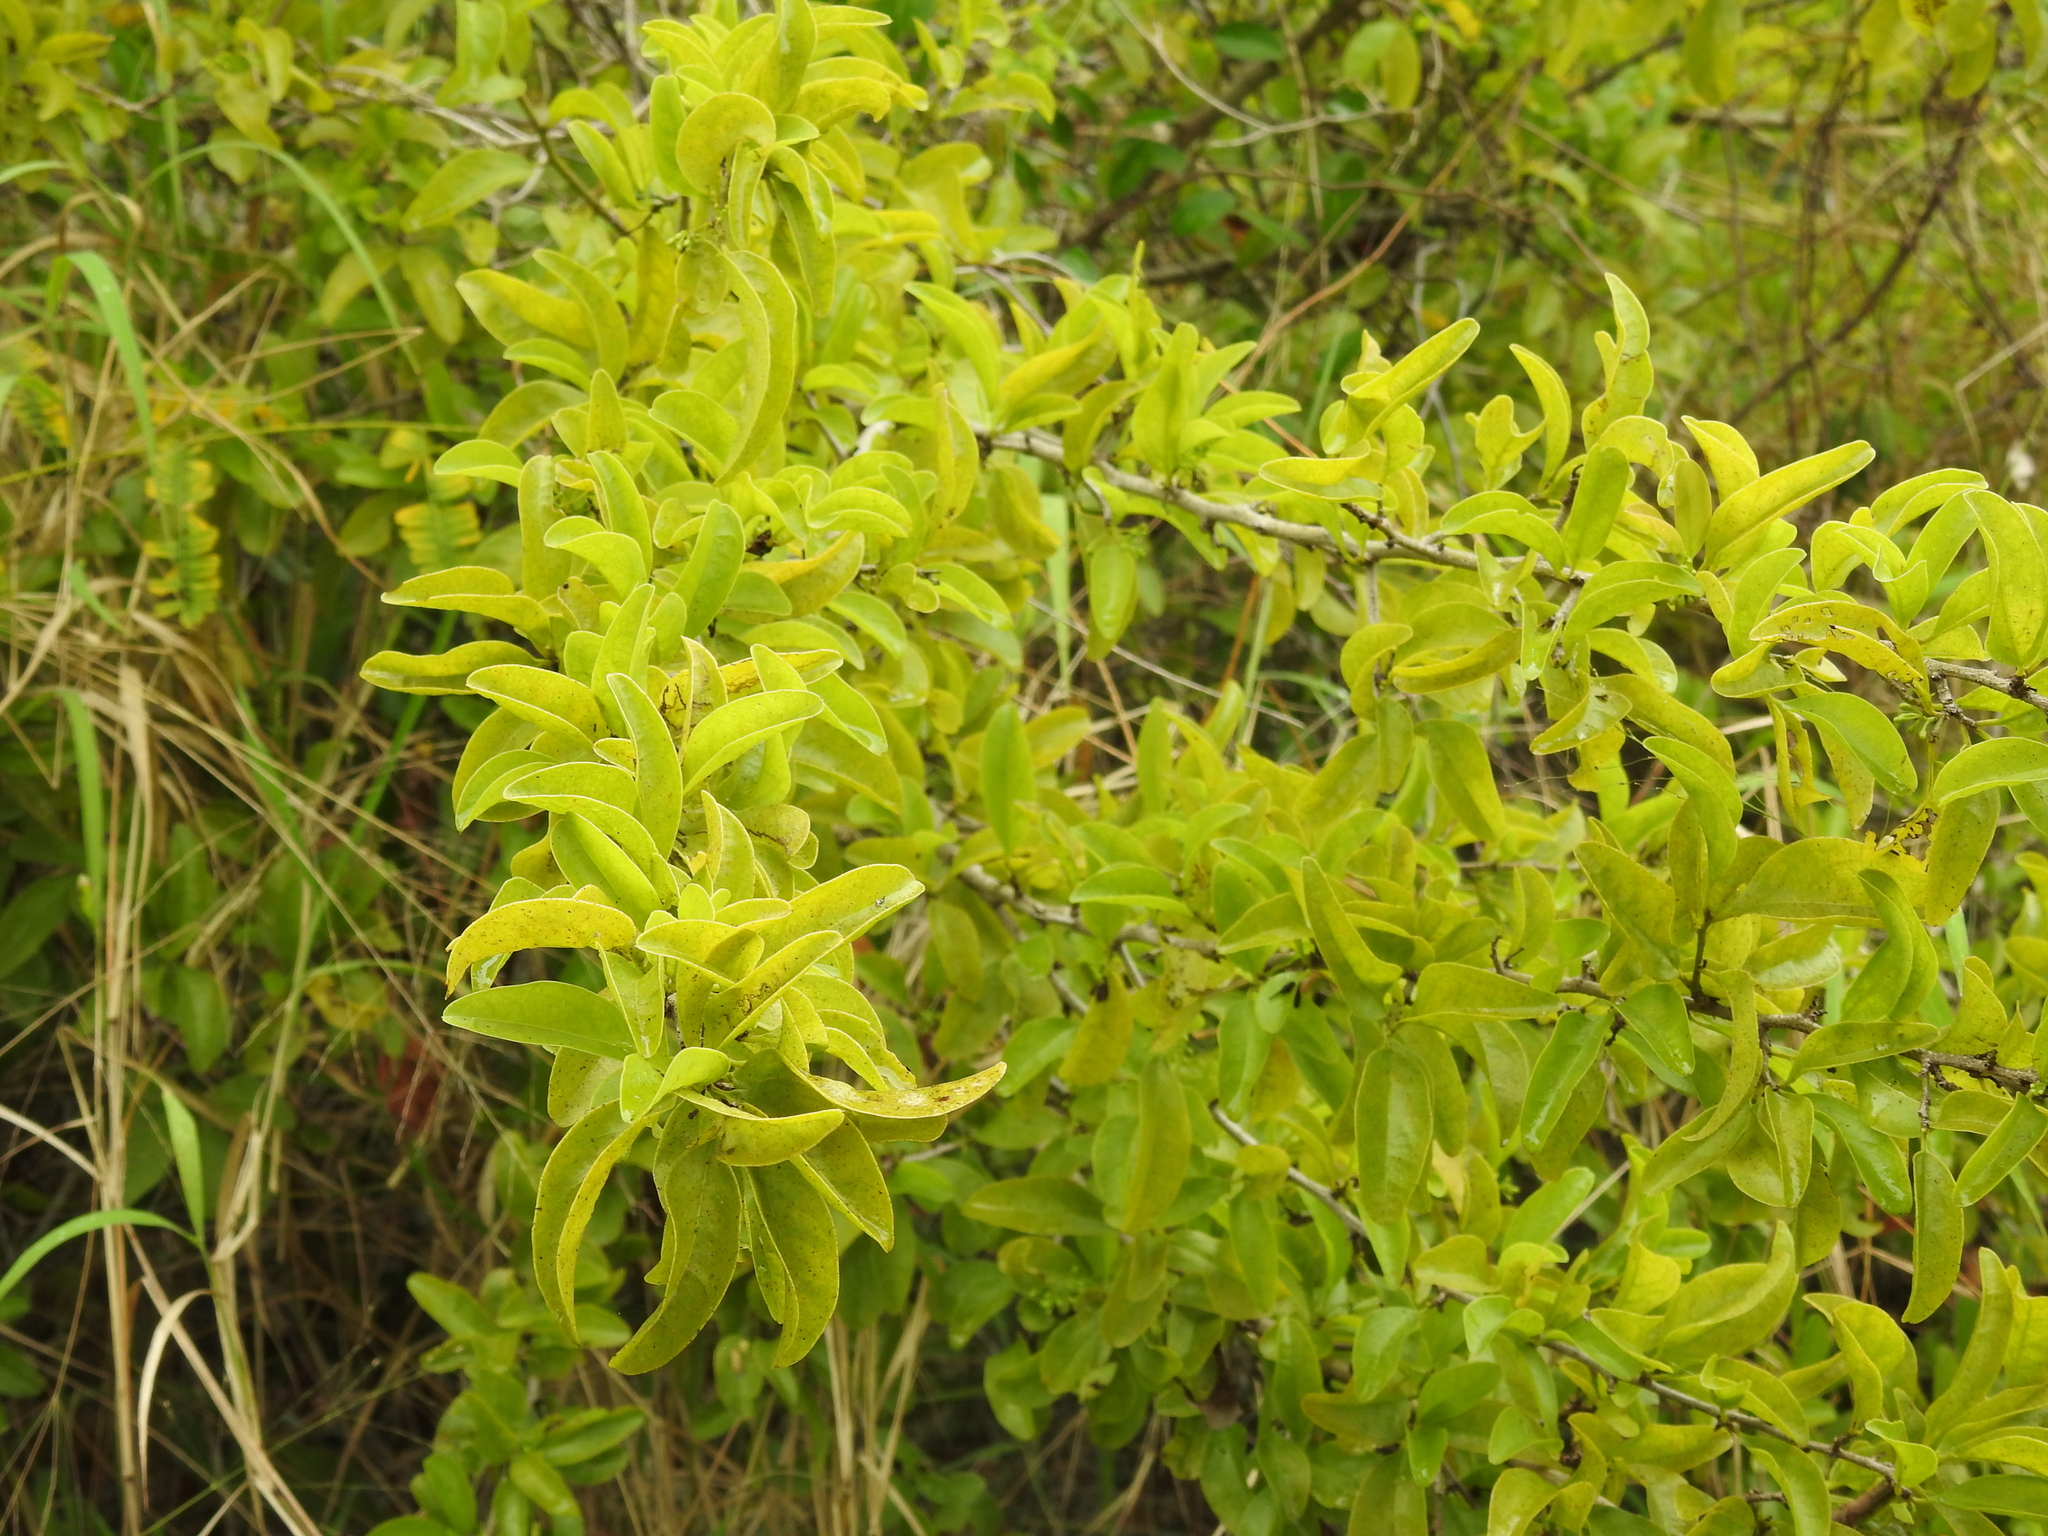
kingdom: Plantae
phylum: Tracheophyta
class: Magnoliopsida
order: Santalales
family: Ximeniaceae
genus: Ximenia
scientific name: Ximenia americana
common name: Tallowwood
